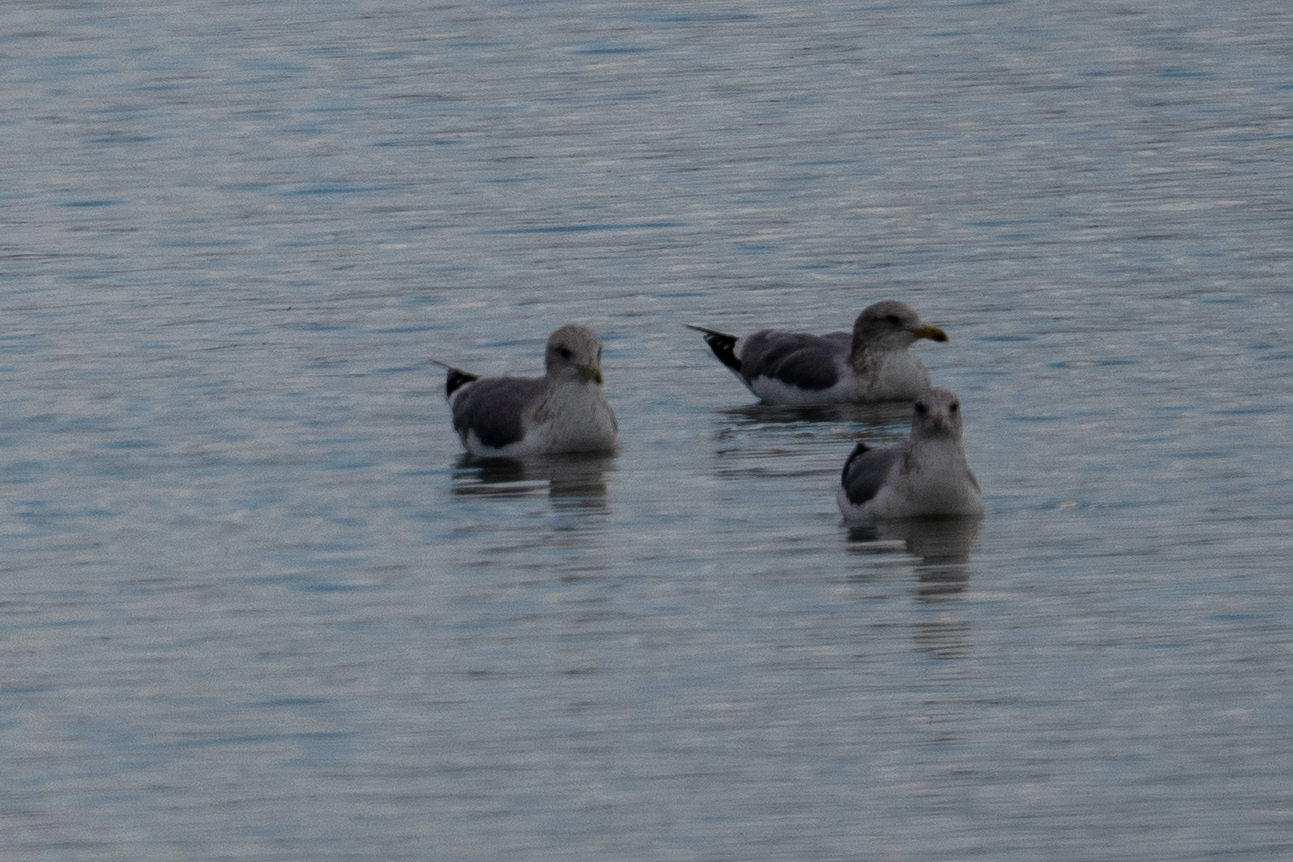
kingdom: Animalia
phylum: Chordata
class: Aves
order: Charadriiformes
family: Laridae
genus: Larus
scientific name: Larus californicus
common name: California gull
